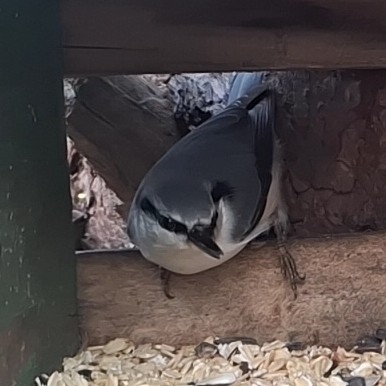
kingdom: Animalia
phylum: Chordata
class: Aves
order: Passeriformes
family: Sittidae
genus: Sitta
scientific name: Sitta europaea
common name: Eurasian nuthatch
